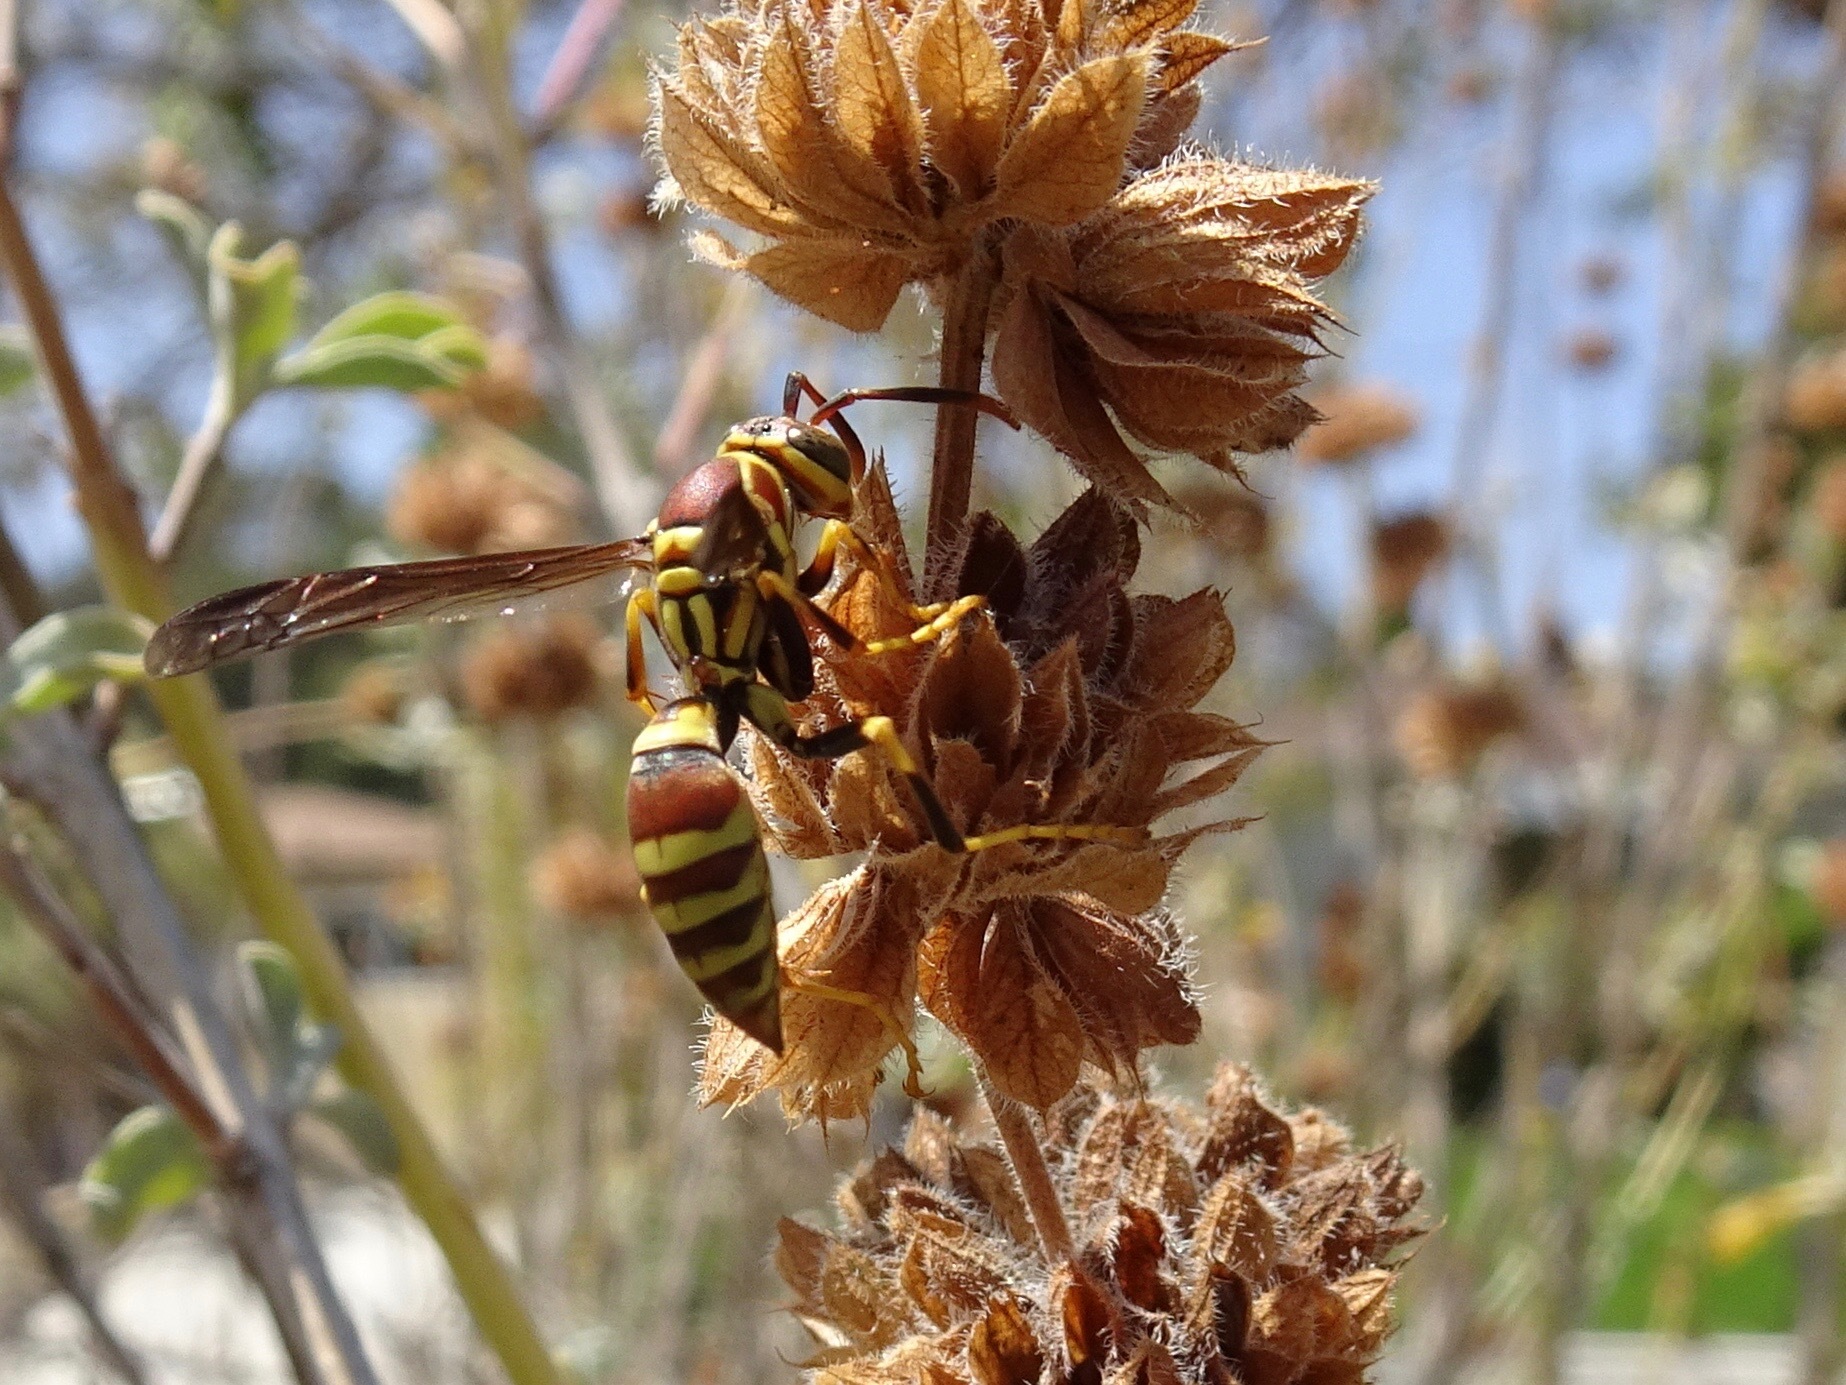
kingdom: Animalia
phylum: Arthropoda
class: Insecta
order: Hymenoptera
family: Eumenidae
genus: Polistes
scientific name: Polistes exclamans
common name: Paper wasp
